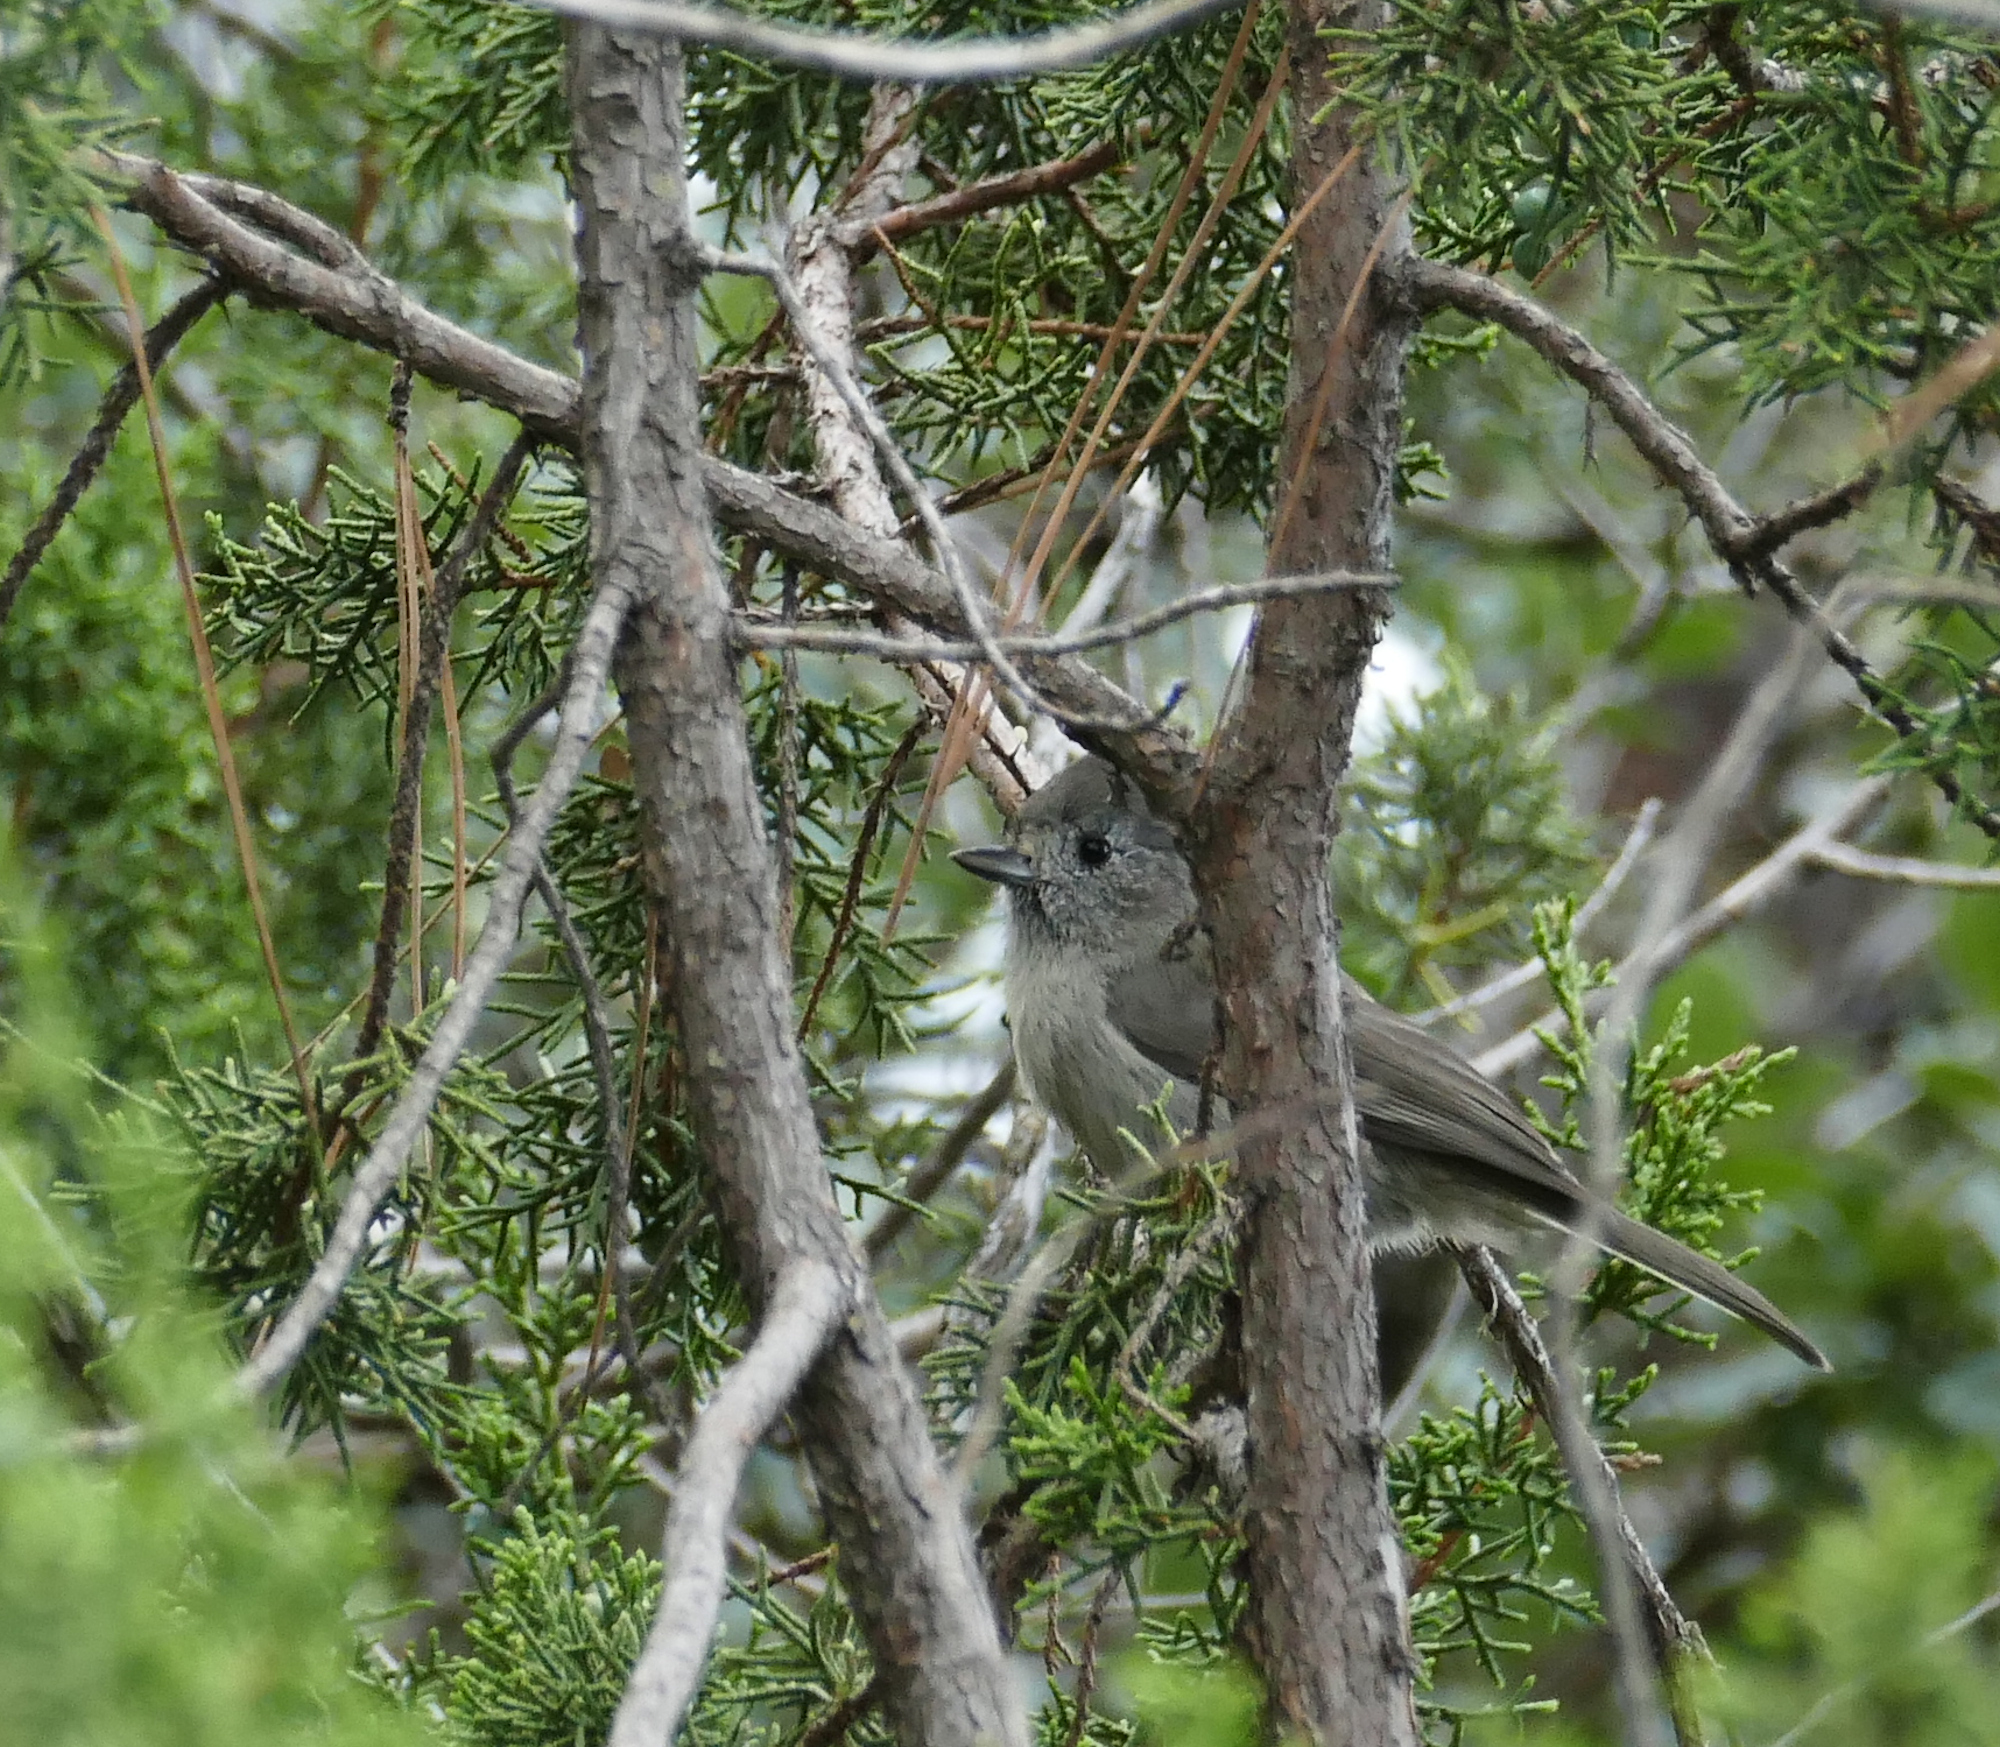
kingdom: Animalia
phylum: Chordata
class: Aves
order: Passeriformes
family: Paridae
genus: Baeolophus
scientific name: Baeolophus ridgwayi
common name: Juniper titmouse
